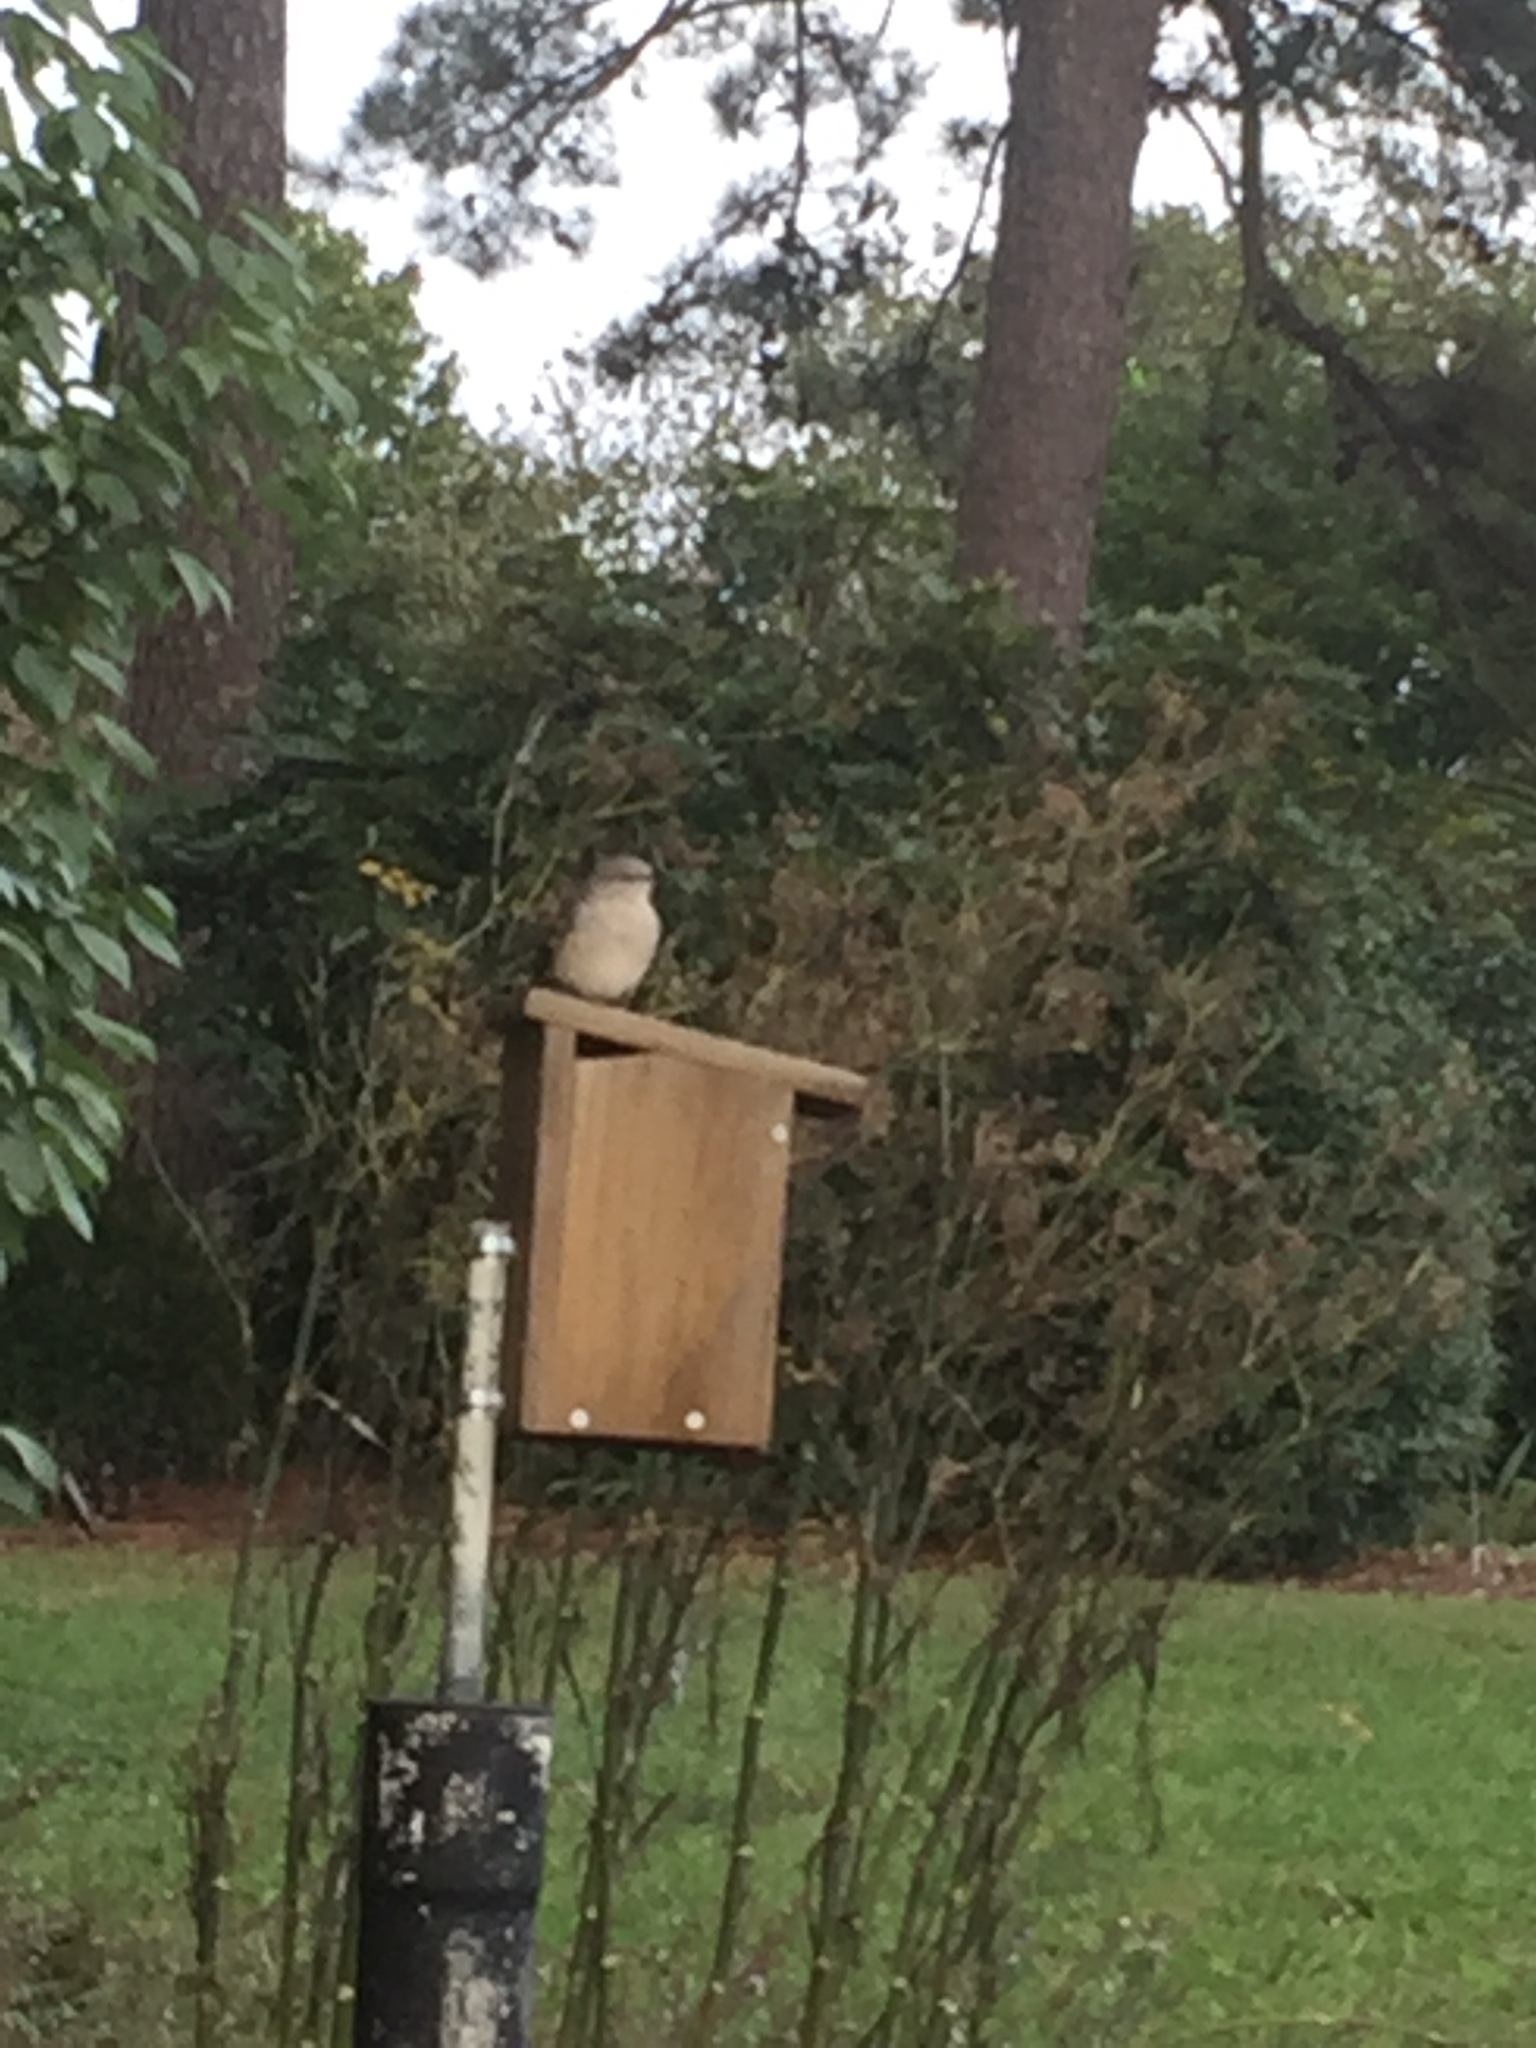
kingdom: Animalia
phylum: Chordata
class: Aves
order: Passeriformes
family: Mimidae
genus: Mimus
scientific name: Mimus polyglottos
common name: Northern mockingbird
